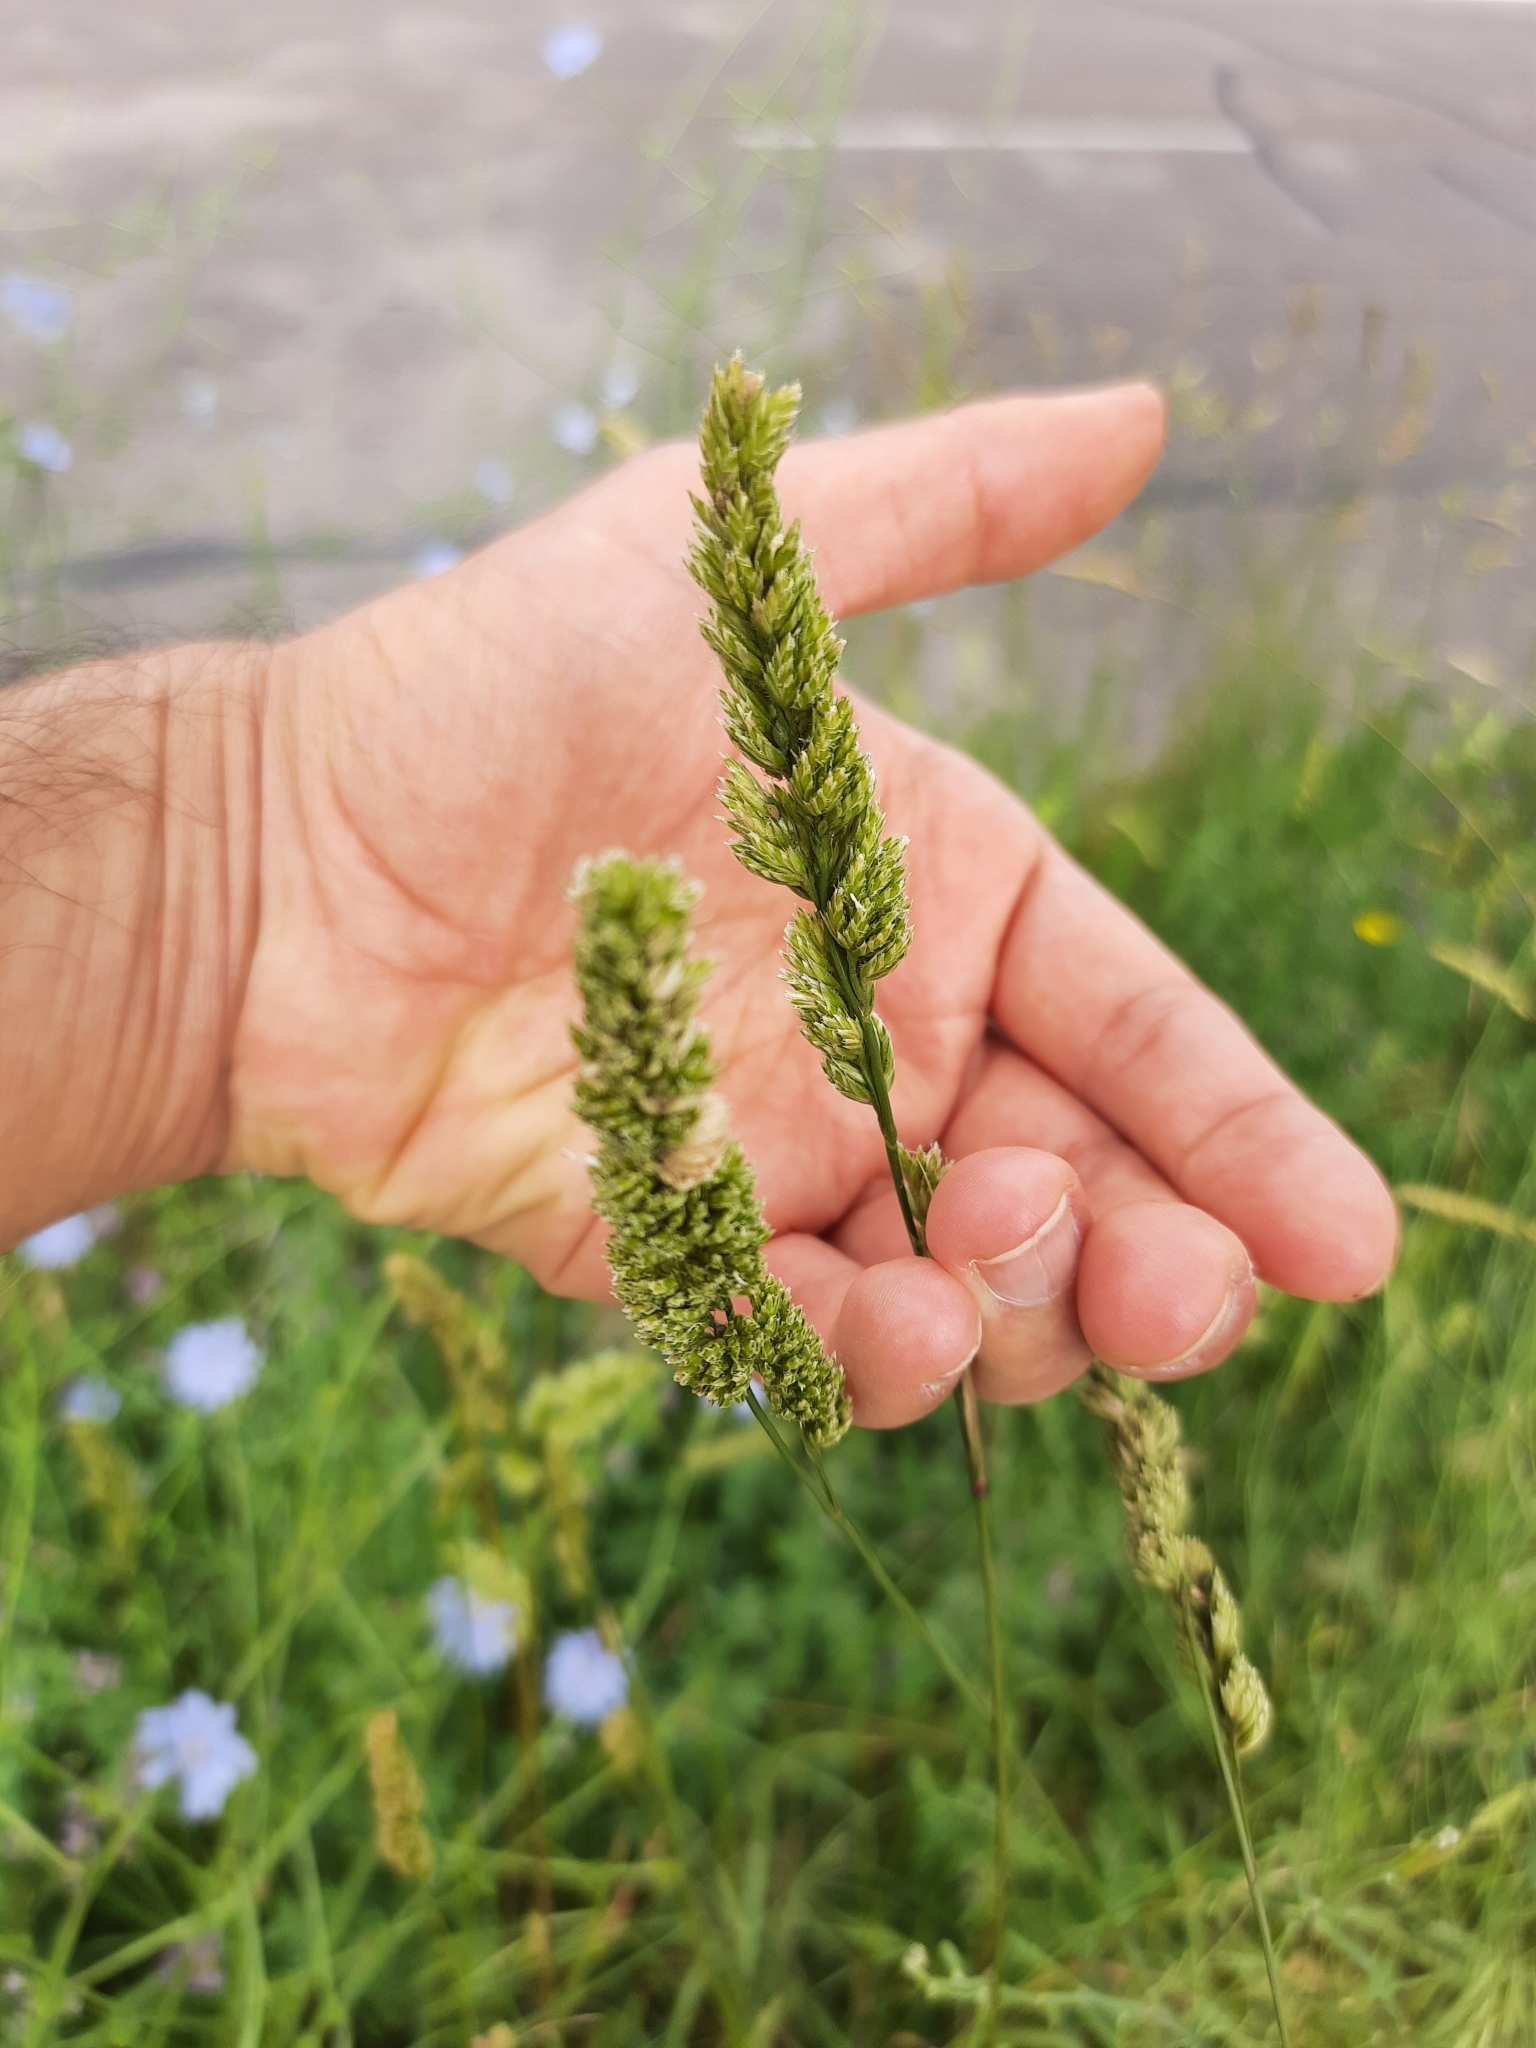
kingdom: Plantae
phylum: Tracheophyta
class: Liliopsida
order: Poales
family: Poaceae
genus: Dactylis
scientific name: Dactylis glomerata
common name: Orchardgrass
